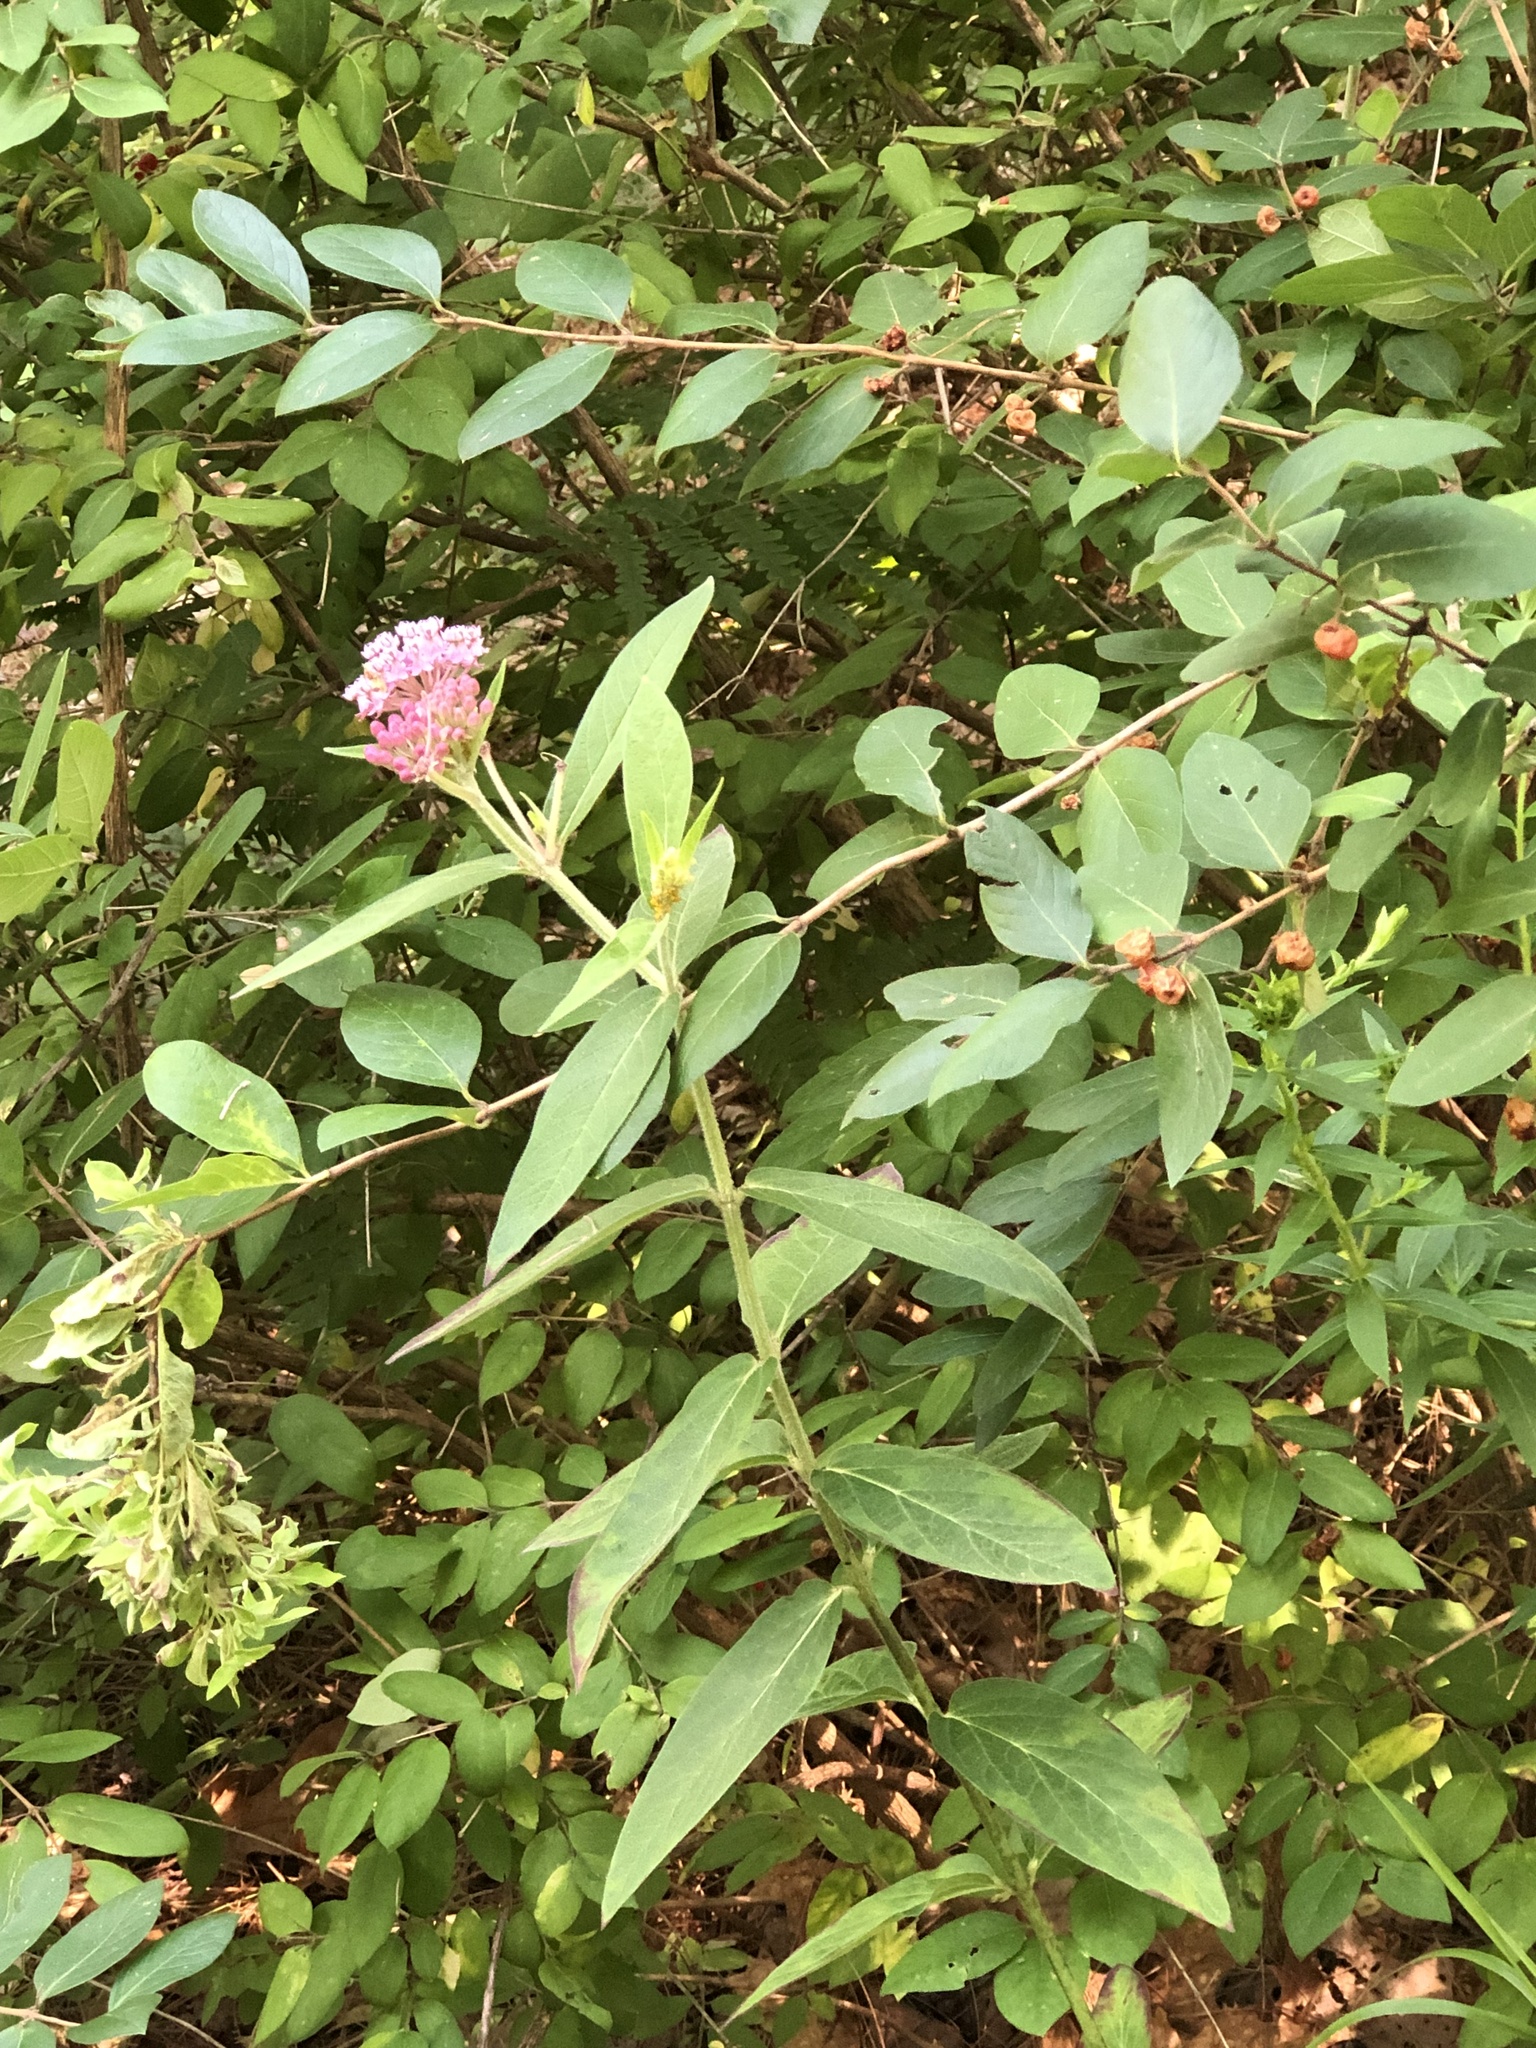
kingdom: Plantae
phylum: Tracheophyta
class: Magnoliopsida
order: Gentianales
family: Apocynaceae
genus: Asclepias
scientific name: Asclepias incarnata
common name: Swamp milkweed
